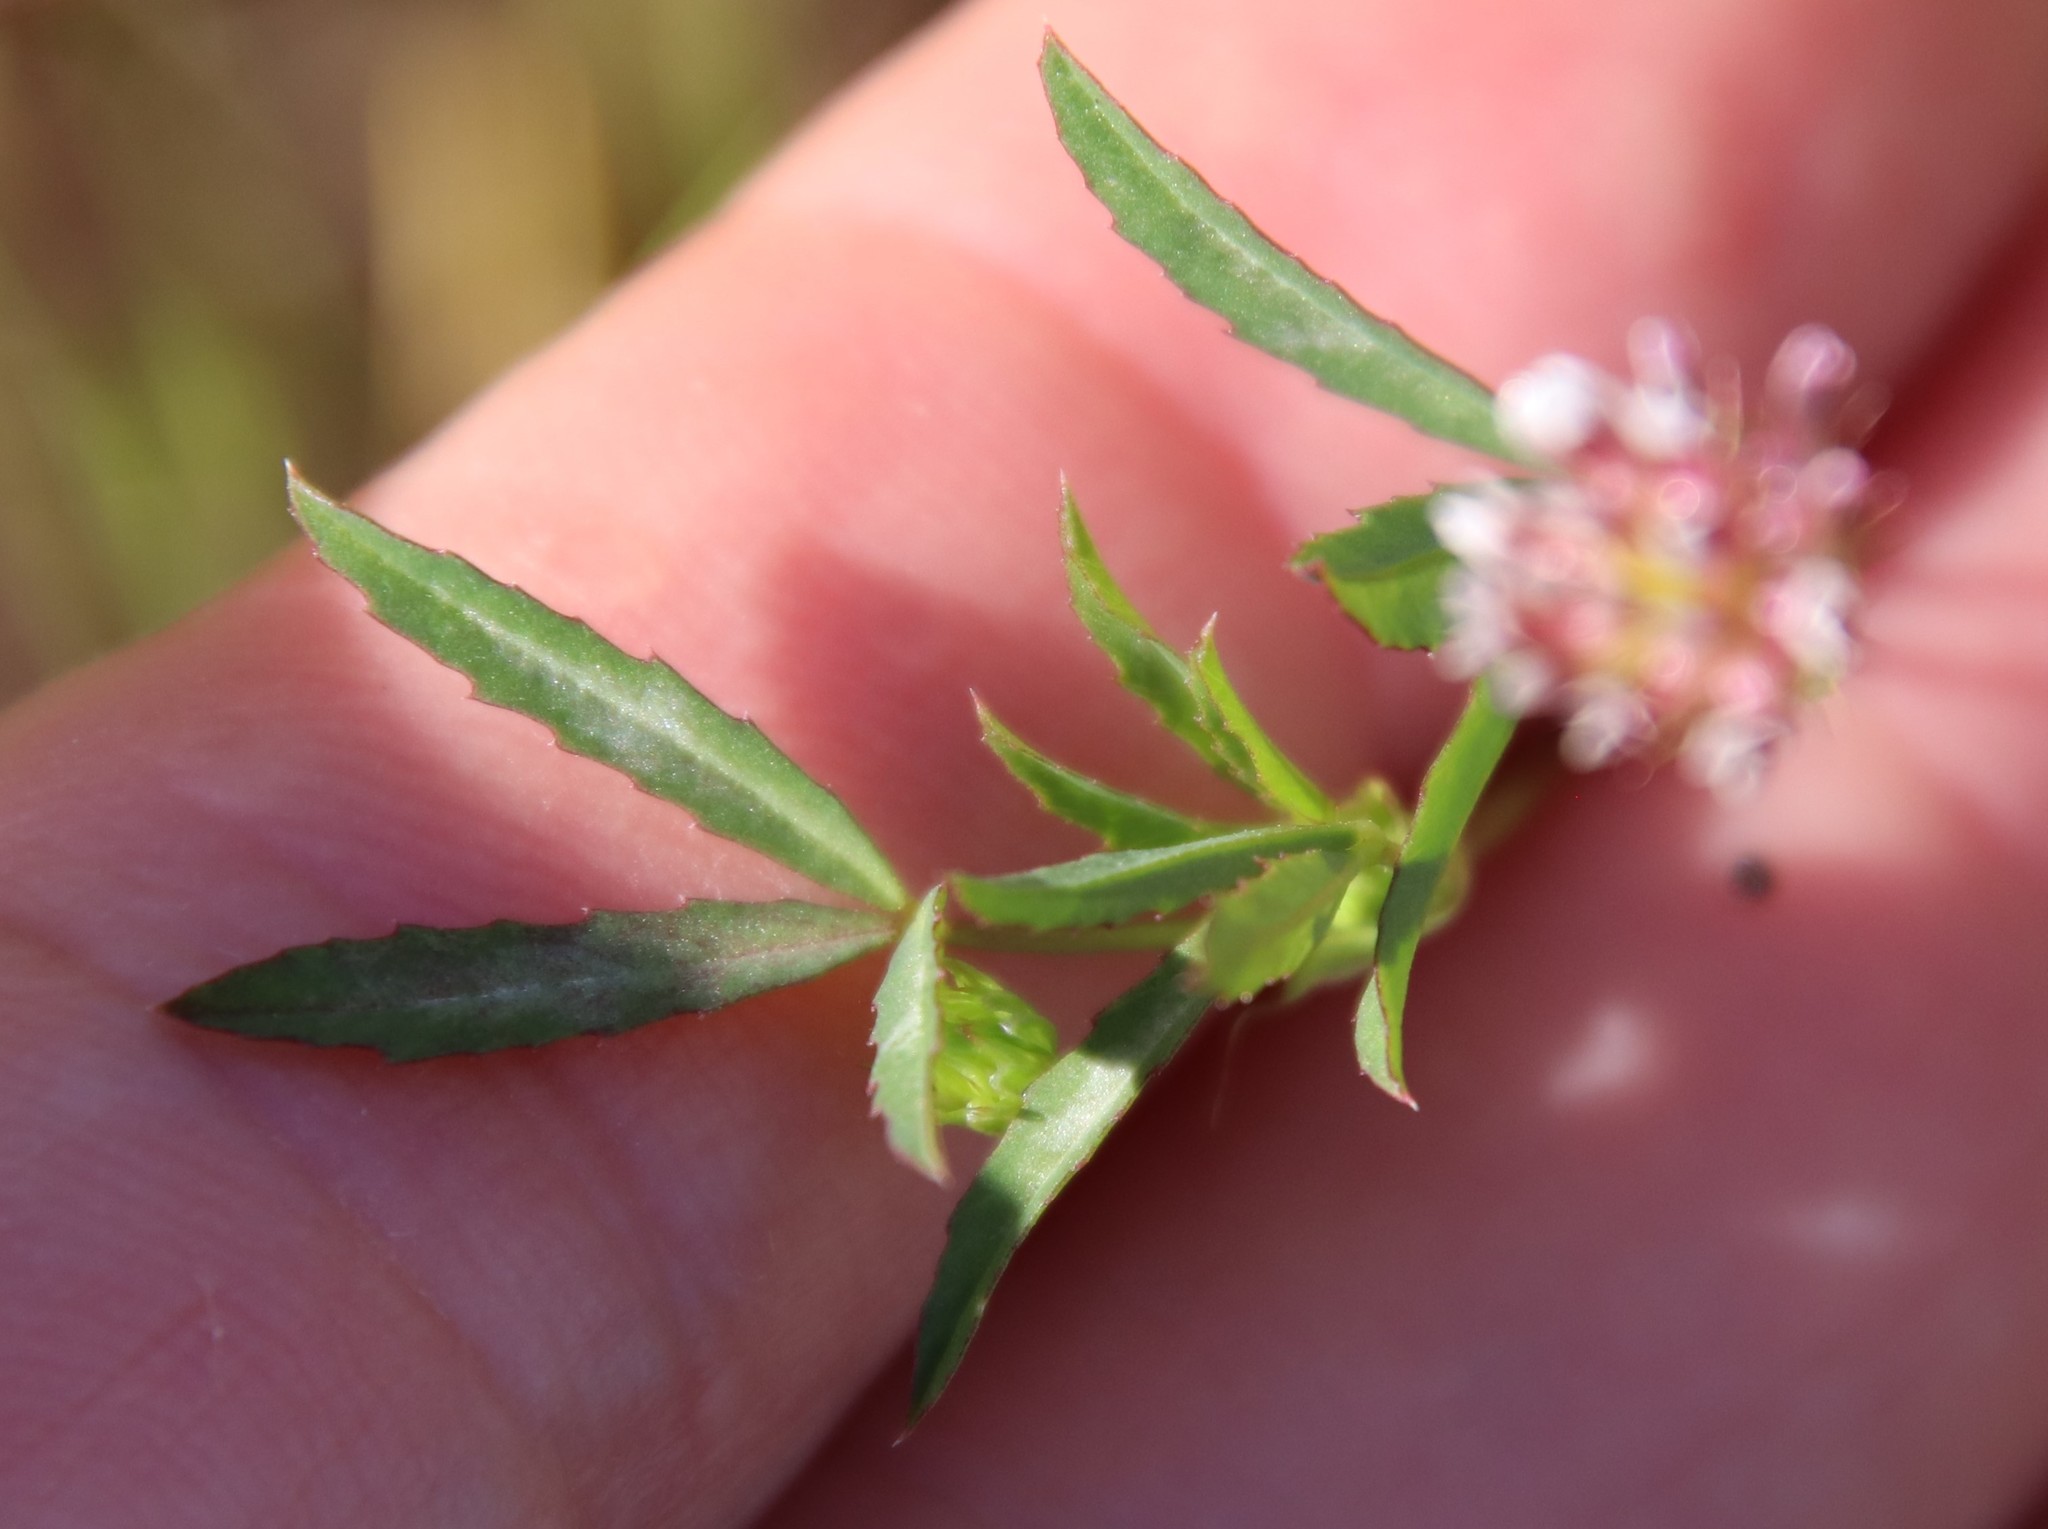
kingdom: Plantae
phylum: Tracheophyta
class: Magnoliopsida
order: Fabales
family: Fabaceae
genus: Trifolium
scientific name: Trifolium willdenovii
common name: Tomcat clover
